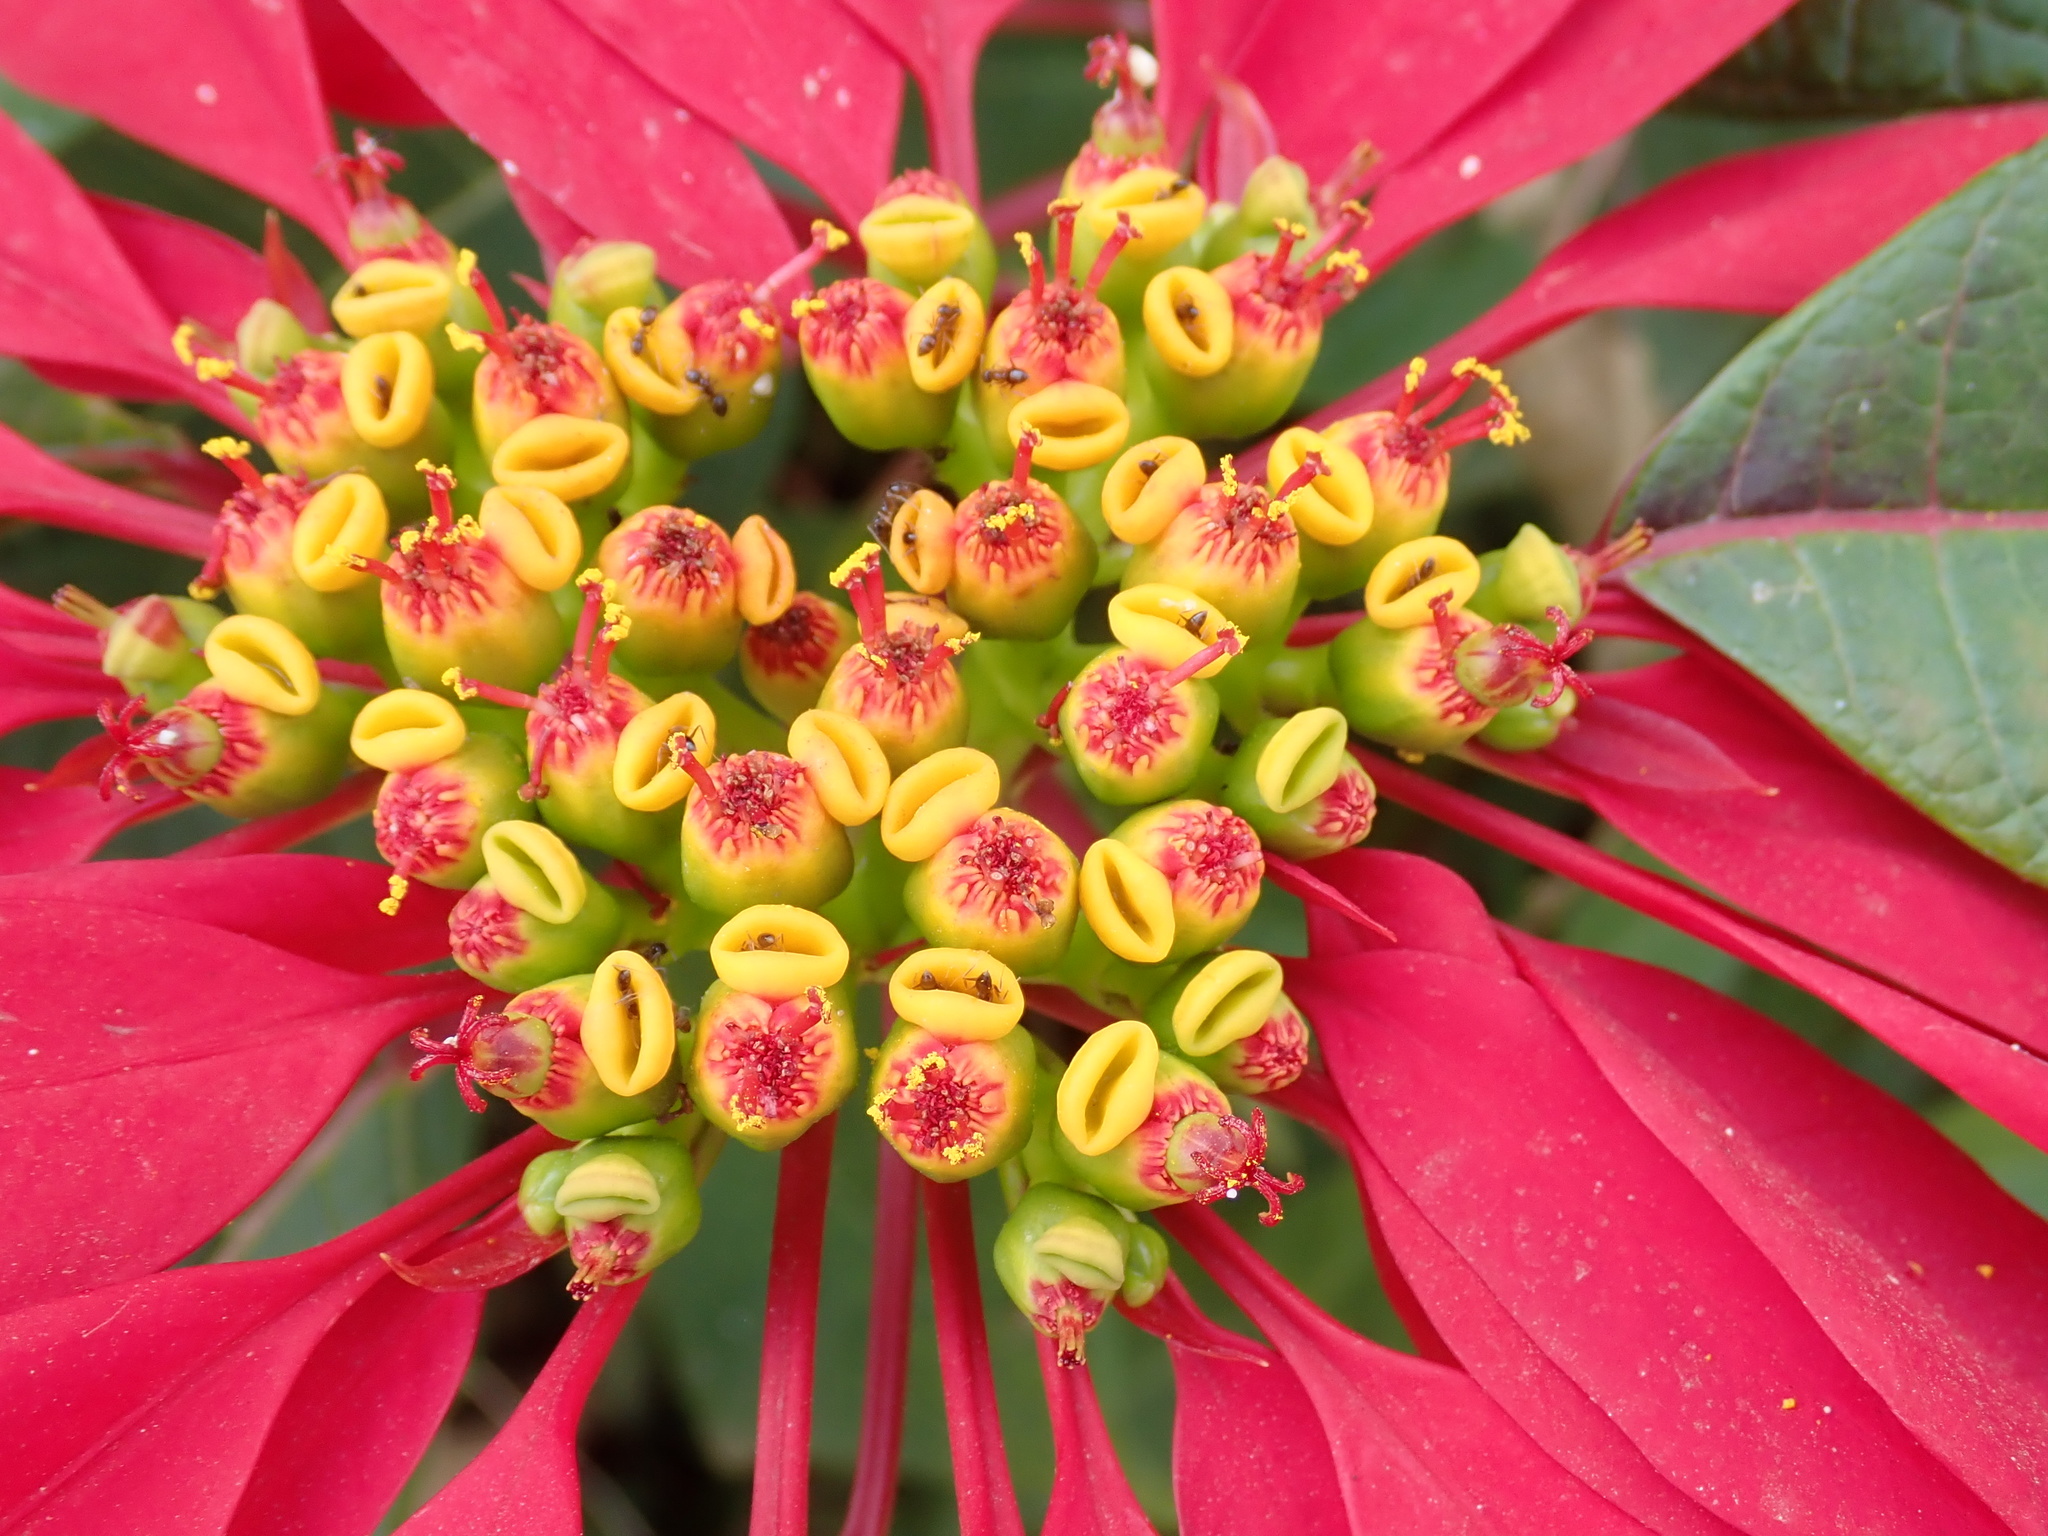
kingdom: Plantae
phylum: Tracheophyta
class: Magnoliopsida
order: Malpighiales
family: Euphorbiaceae
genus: Euphorbia
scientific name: Euphorbia pulcherrima
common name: Christmas-flower
